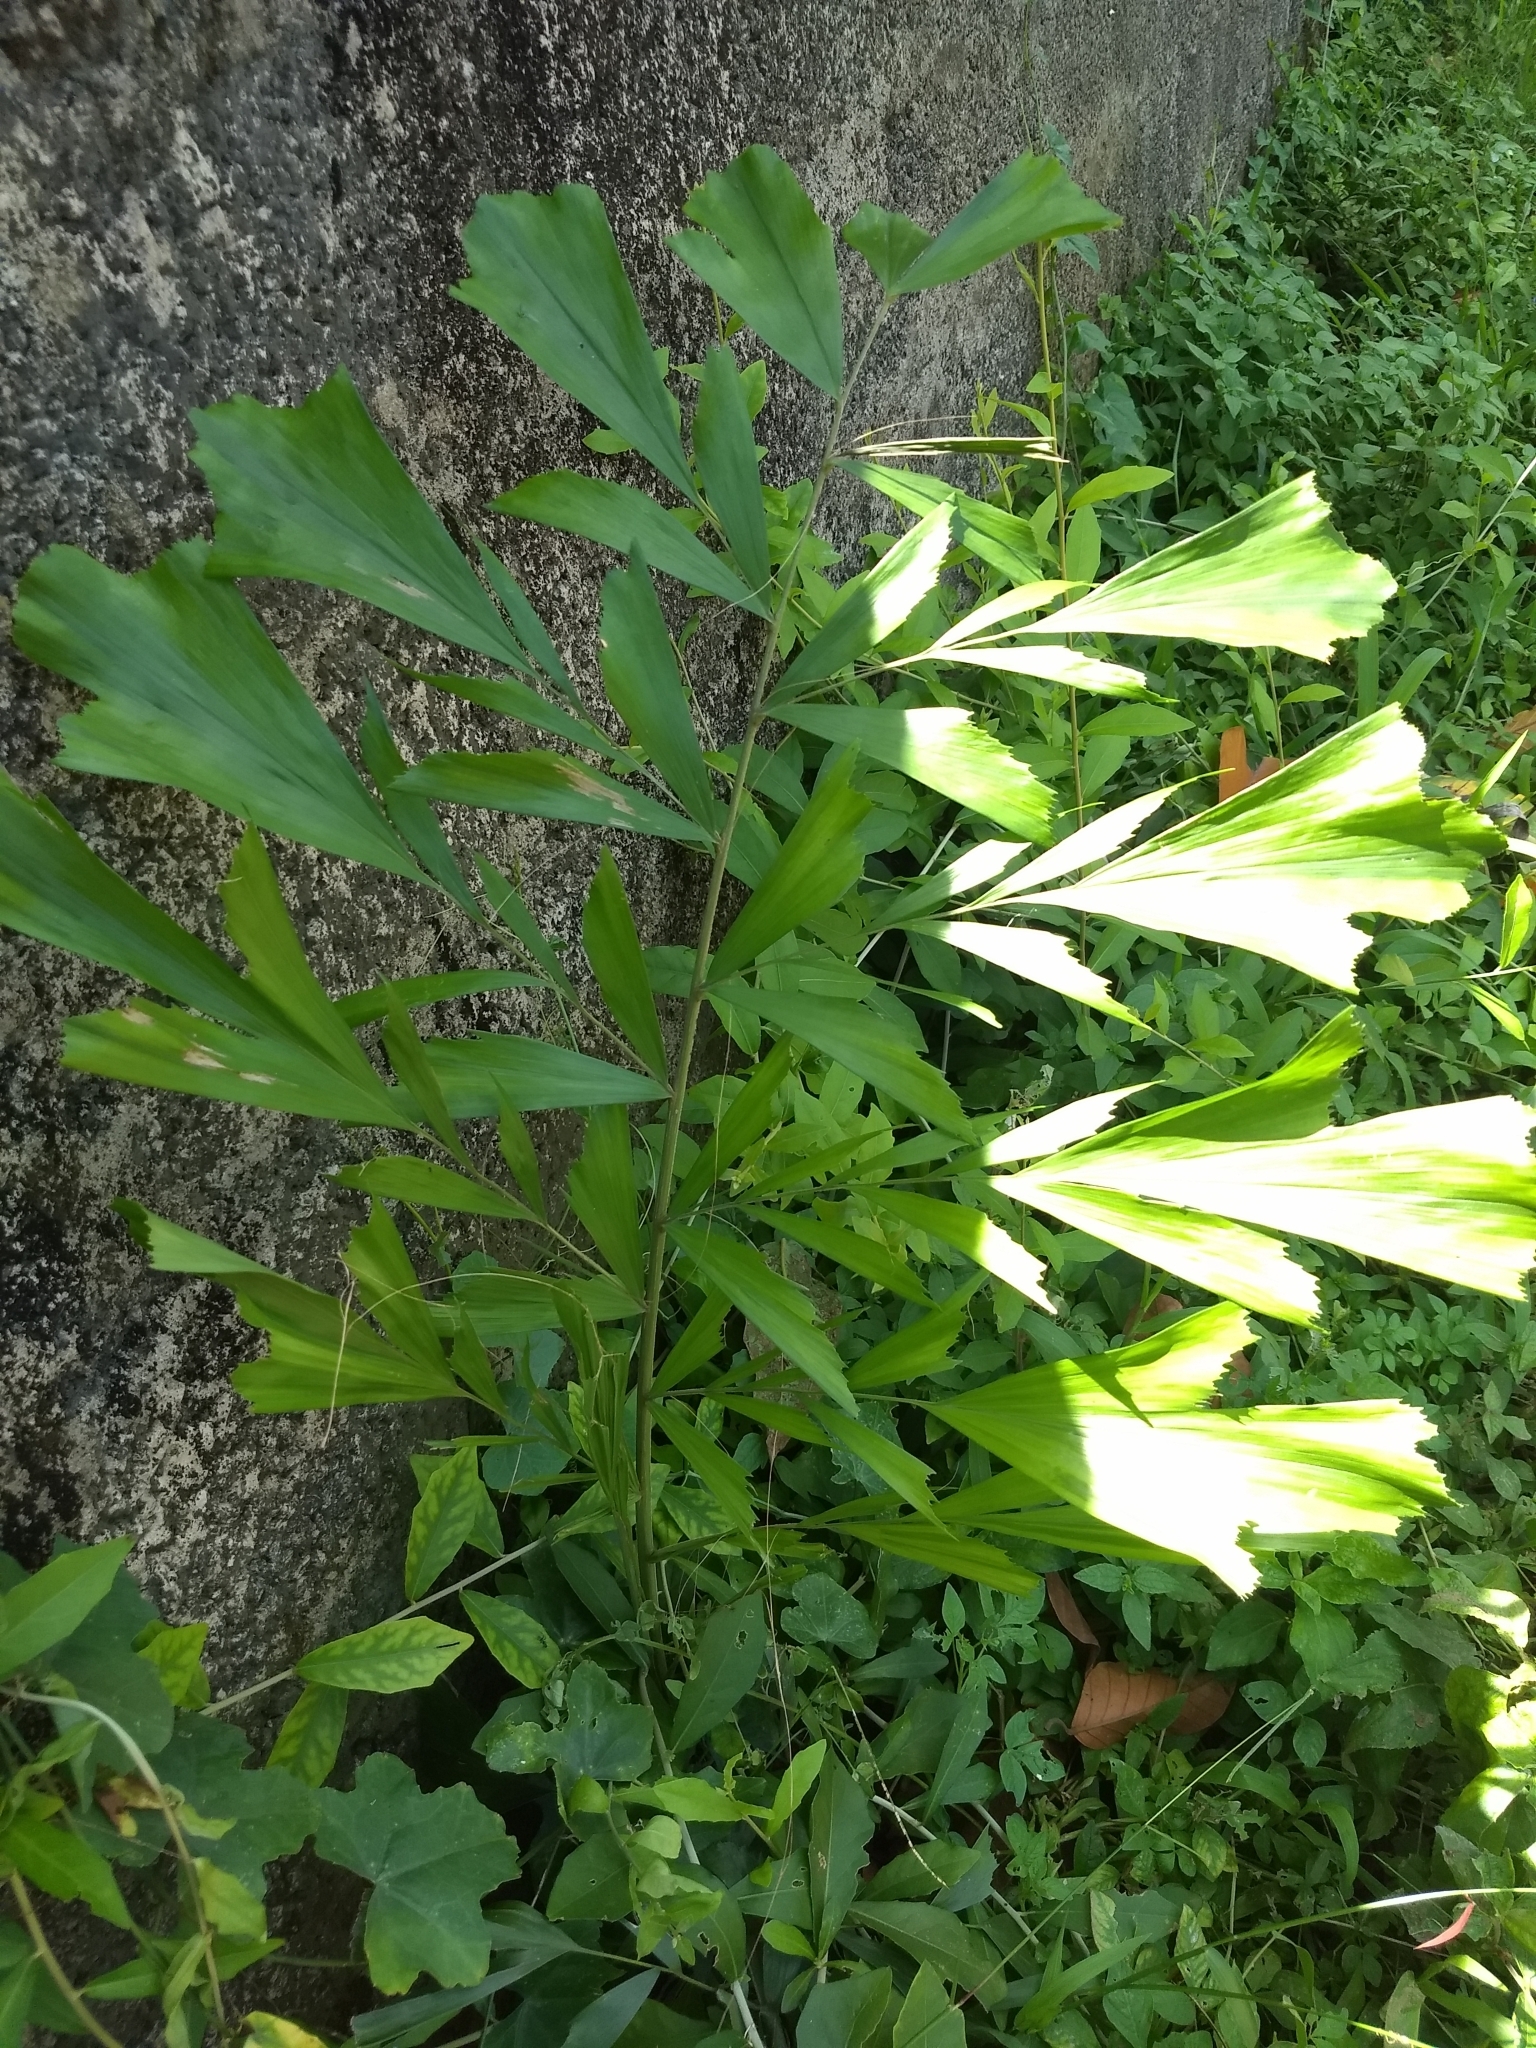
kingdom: Plantae
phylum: Tracheophyta
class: Liliopsida
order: Arecales
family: Arecaceae
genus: Caryota
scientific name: Caryota urens
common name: Jaggery palm
